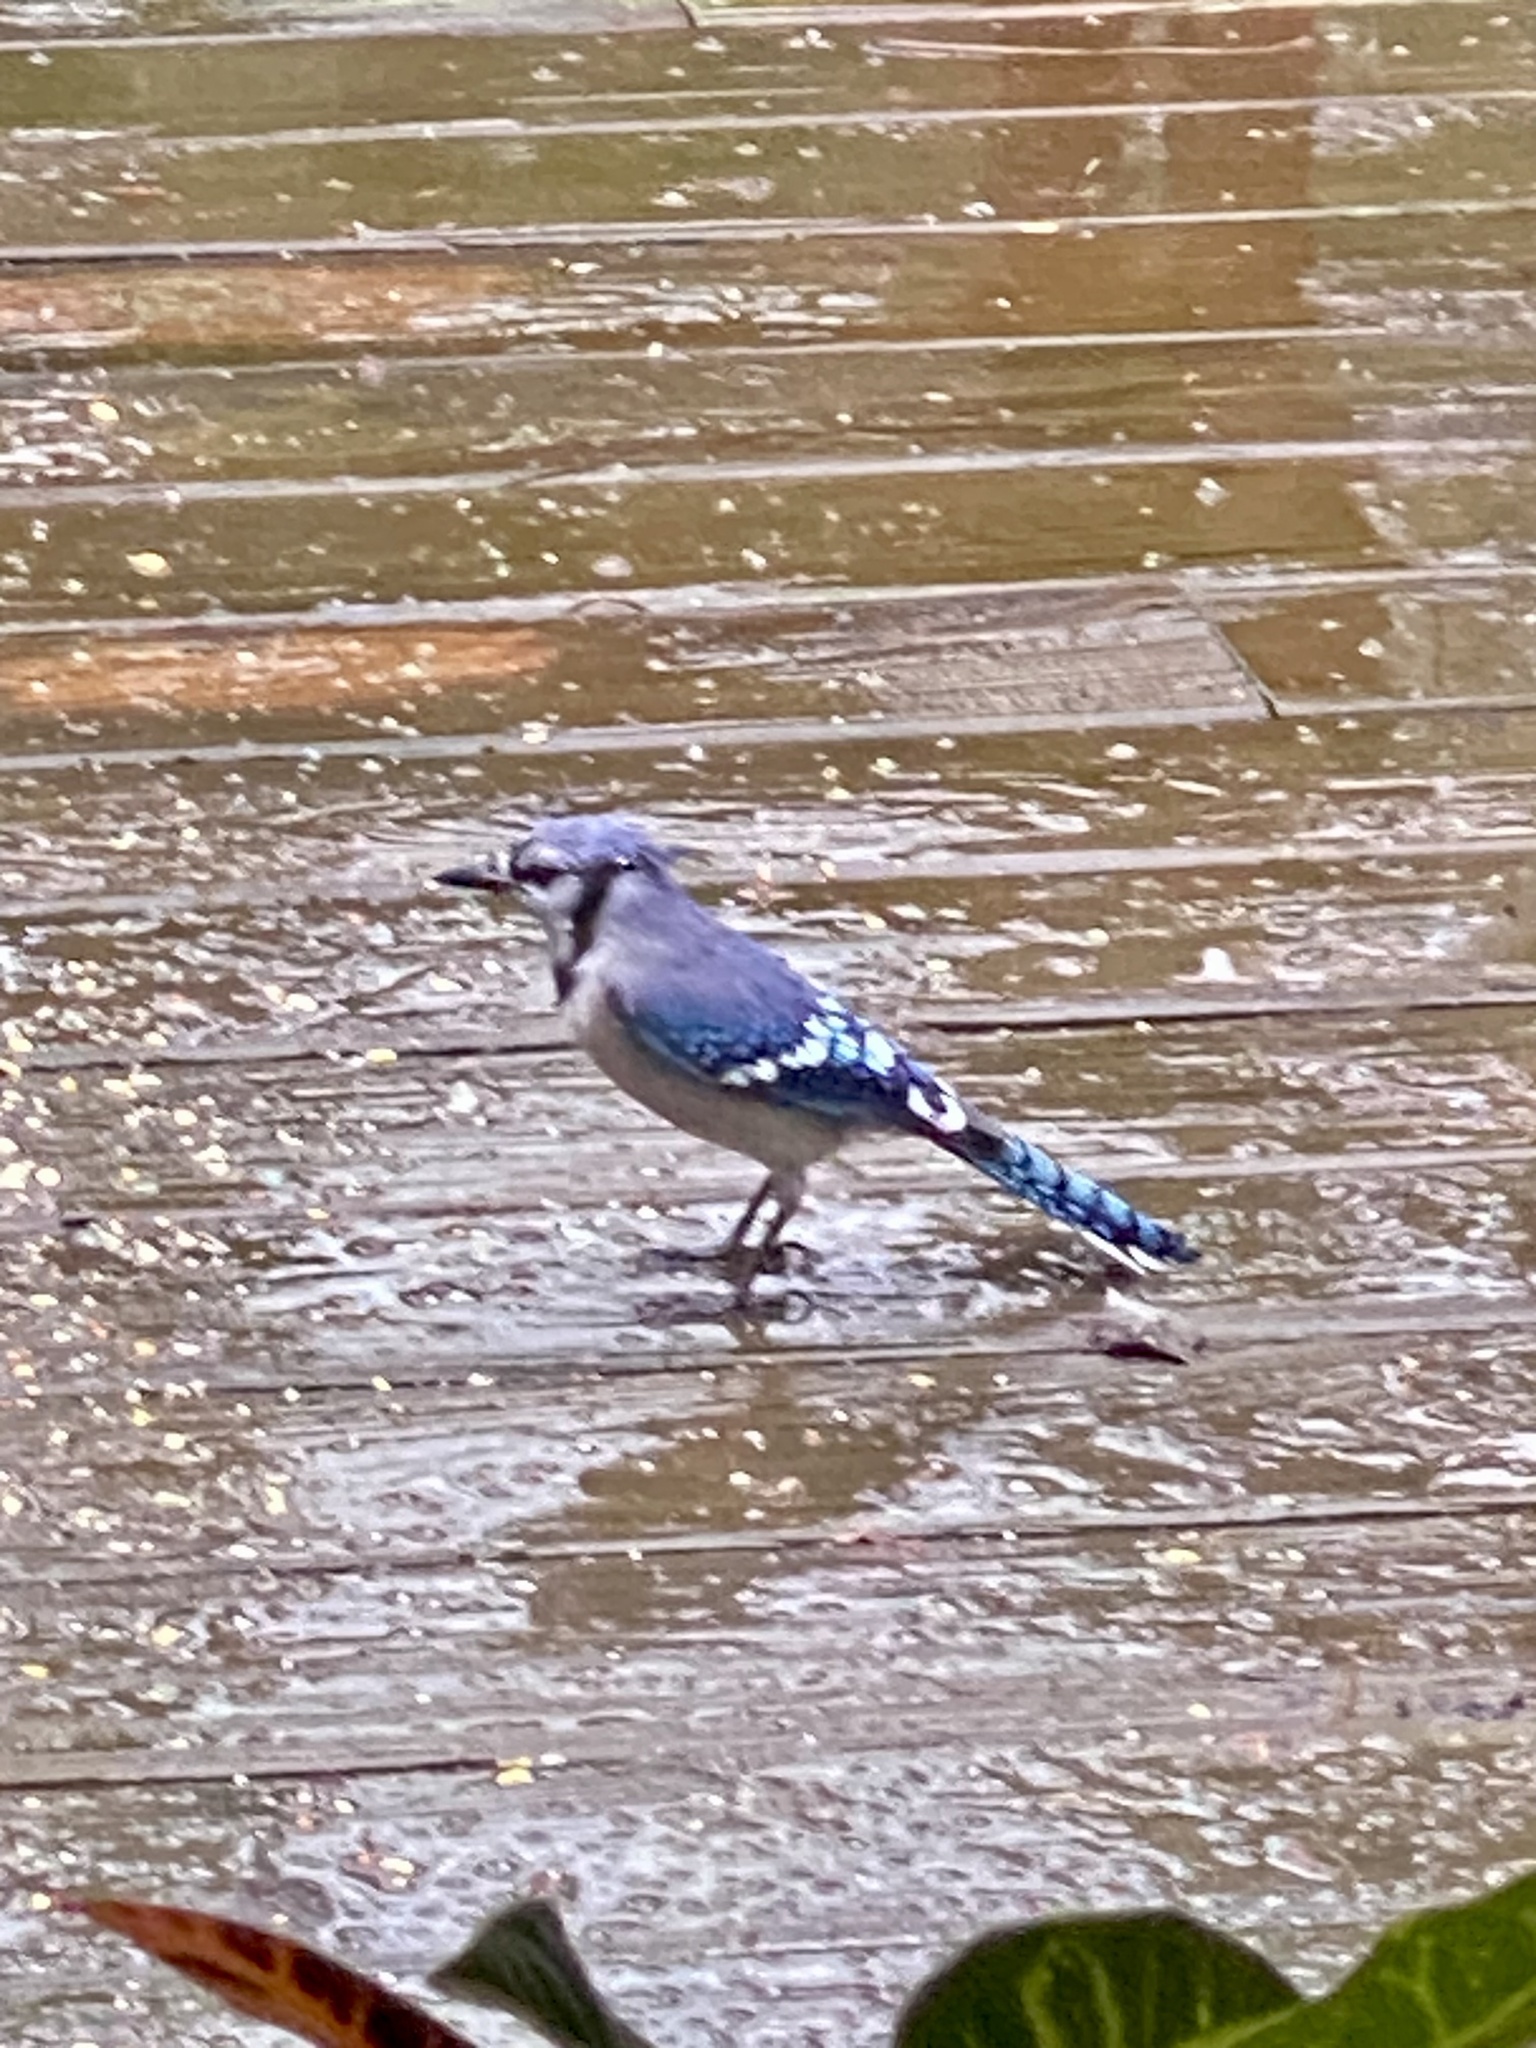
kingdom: Animalia
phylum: Chordata
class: Aves
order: Passeriformes
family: Corvidae
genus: Cyanocitta
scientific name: Cyanocitta cristata
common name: Blue jay
